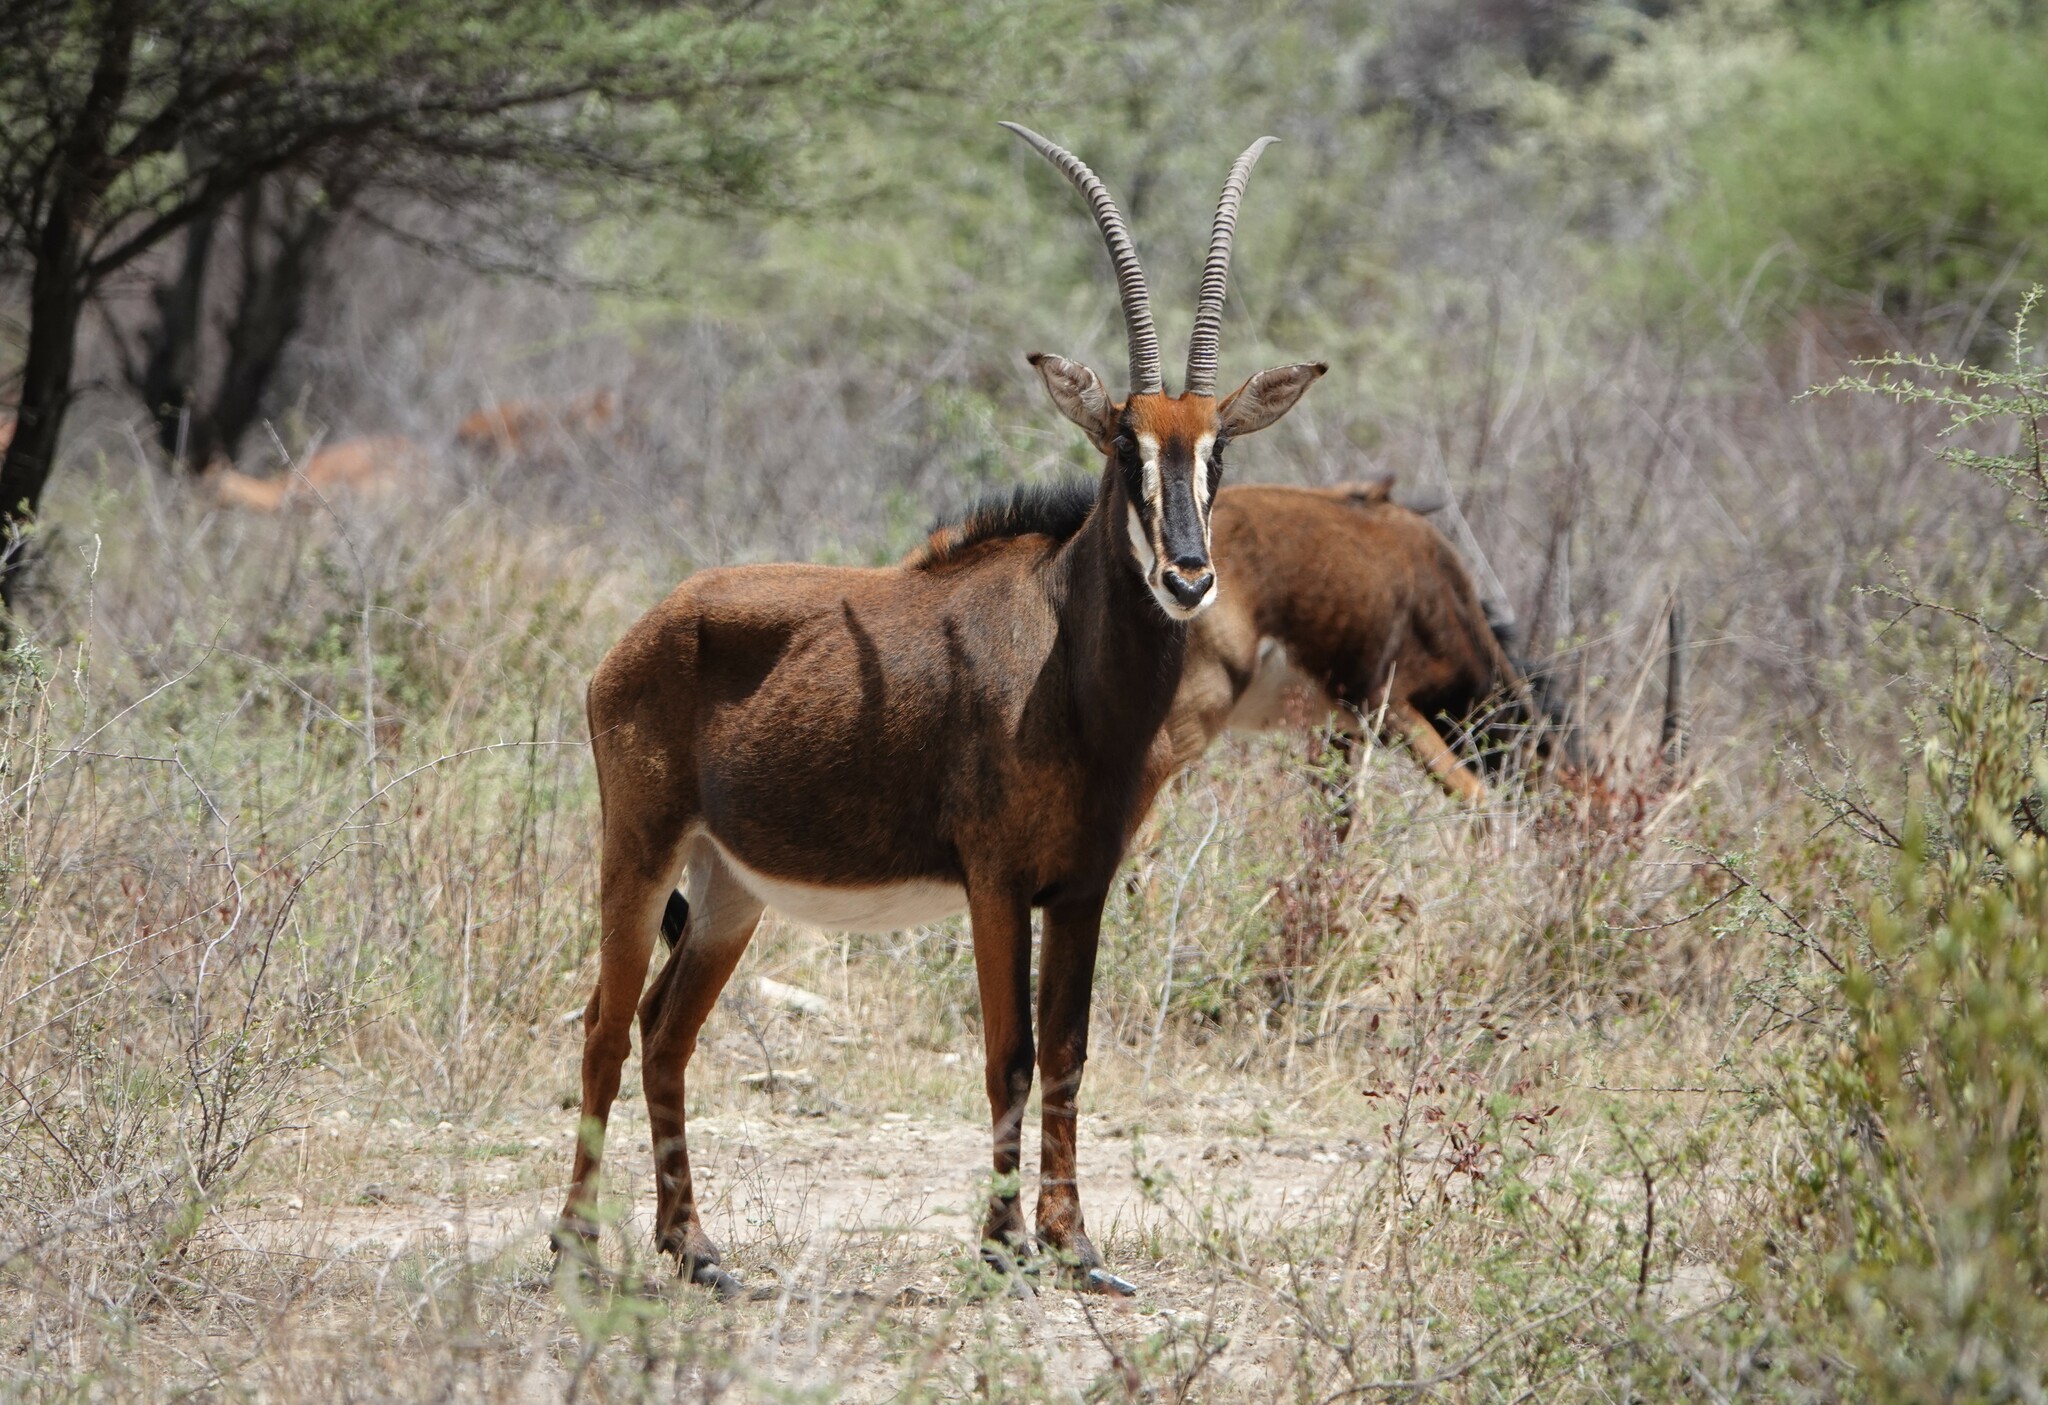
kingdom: Animalia
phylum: Chordata
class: Mammalia
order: Artiodactyla
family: Bovidae
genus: Hippotragus
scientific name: Hippotragus niger
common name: Sable antelope
